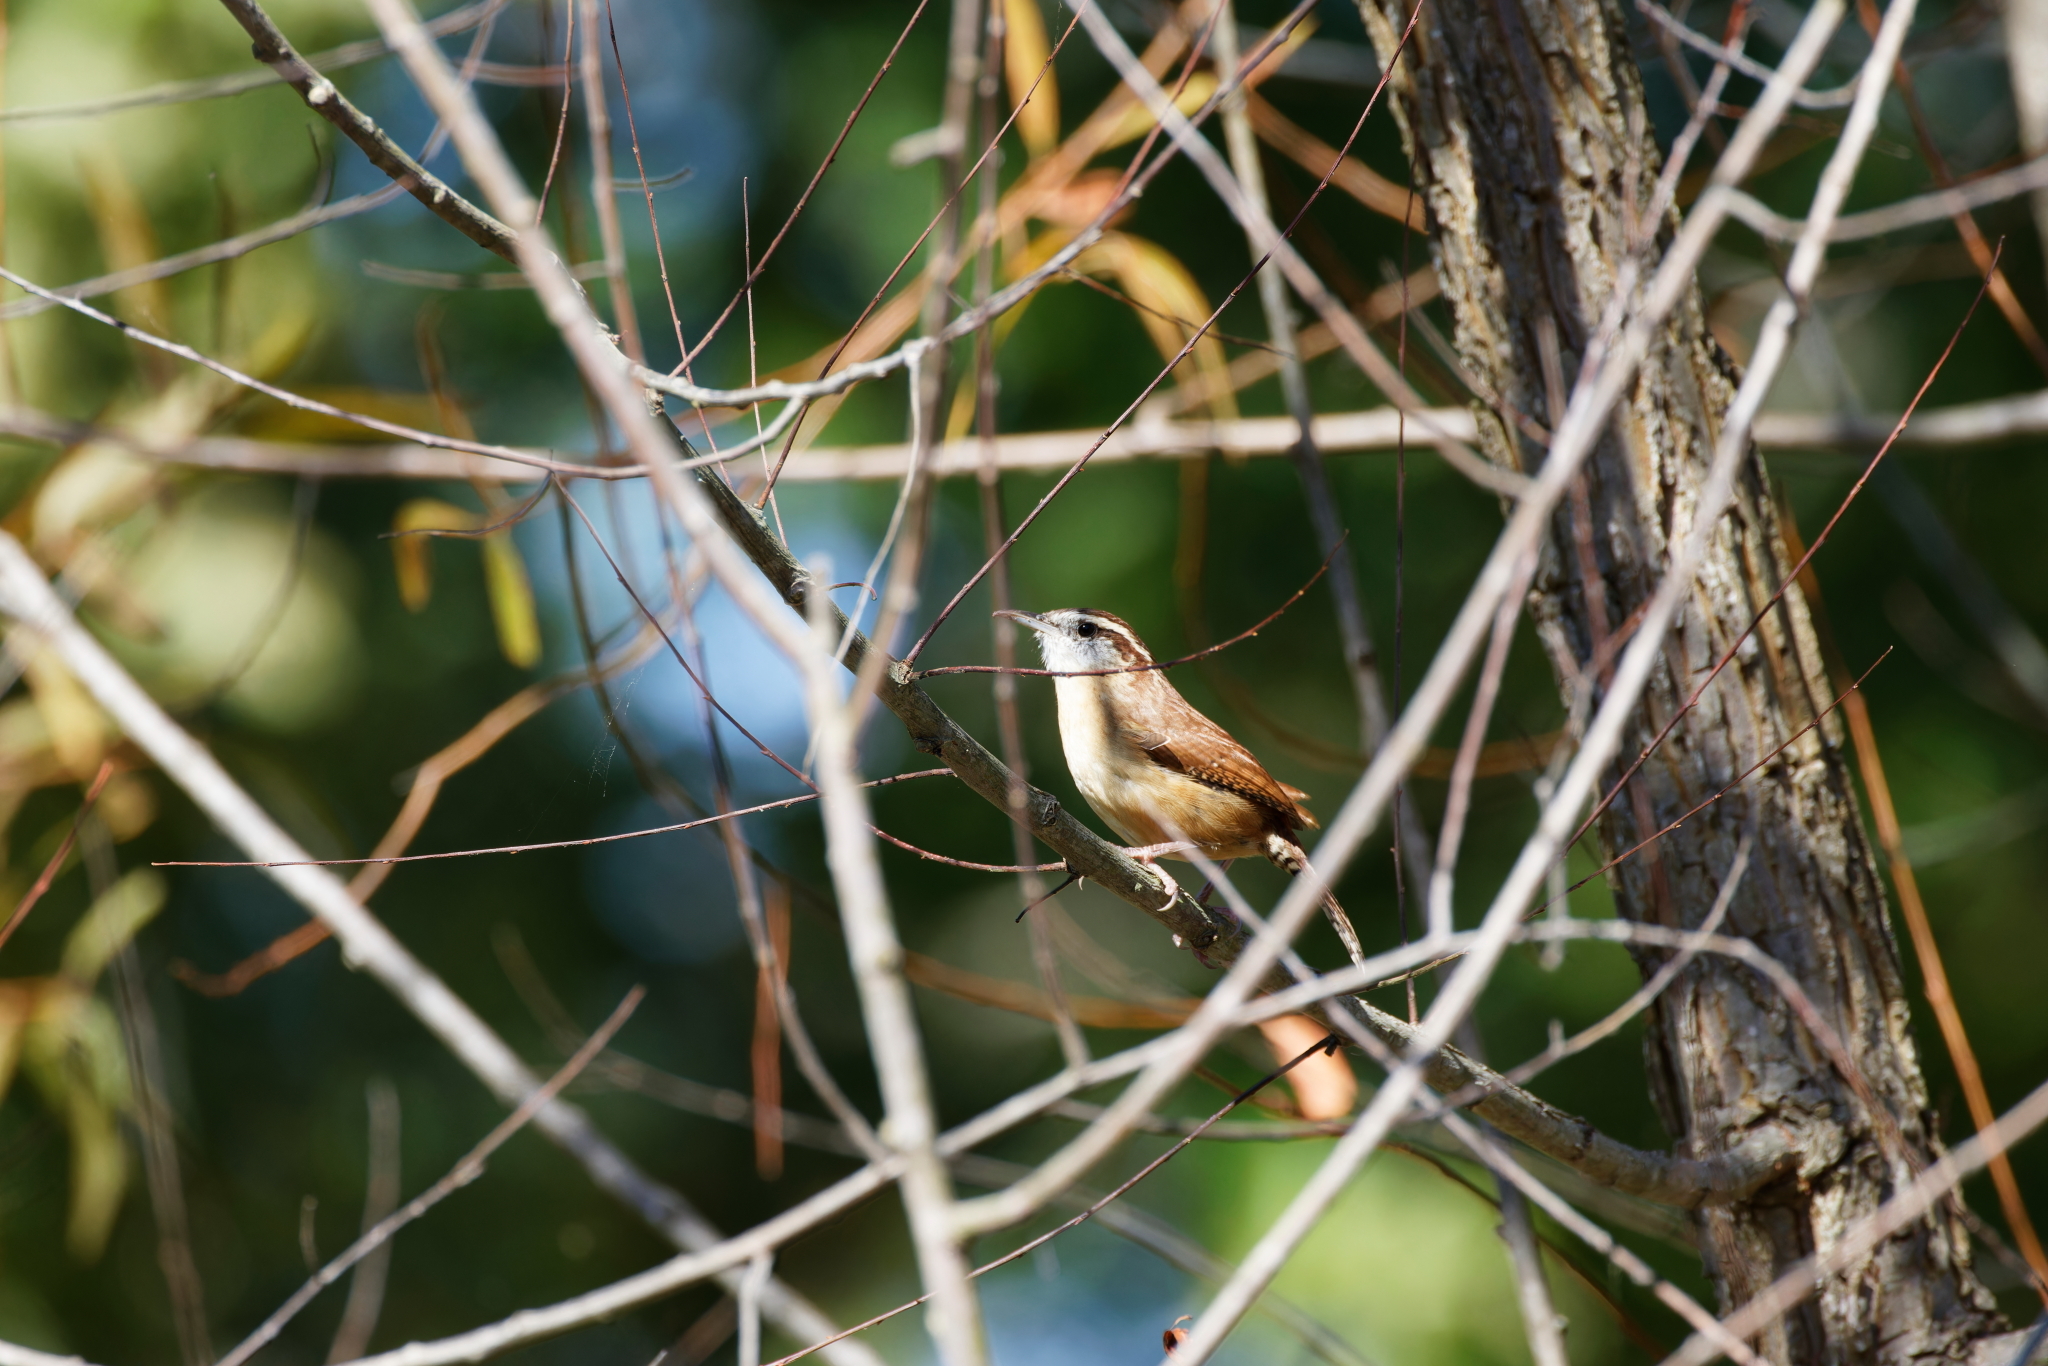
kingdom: Animalia
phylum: Chordata
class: Aves
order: Passeriformes
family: Troglodytidae
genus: Thryothorus
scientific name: Thryothorus ludovicianus
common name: Carolina wren
